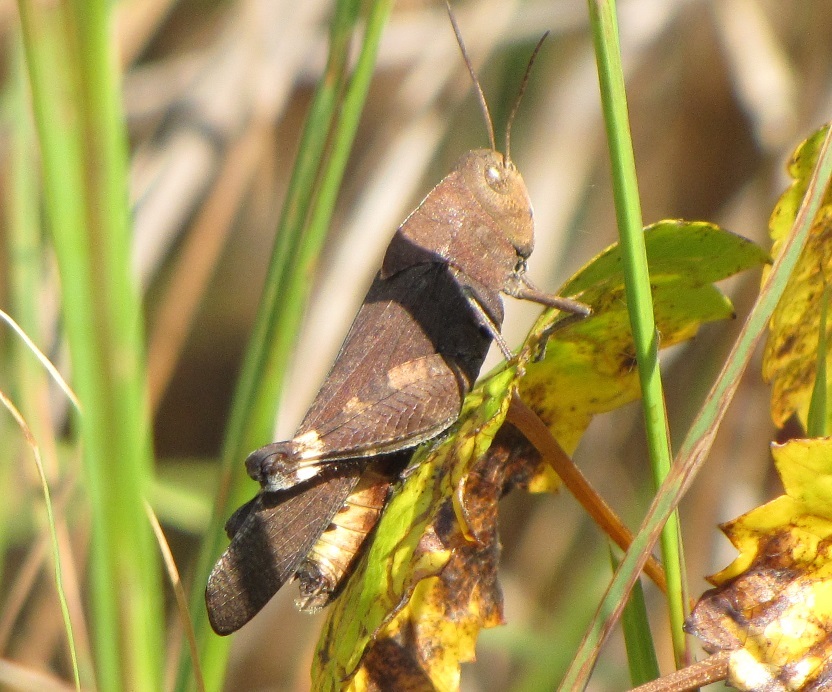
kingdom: Animalia
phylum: Arthropoda
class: Insecta
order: Orthoptera
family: Acrididae
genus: Arphia
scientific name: Arphia xanthoptera
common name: Autumn yellow-winged grasshopper
